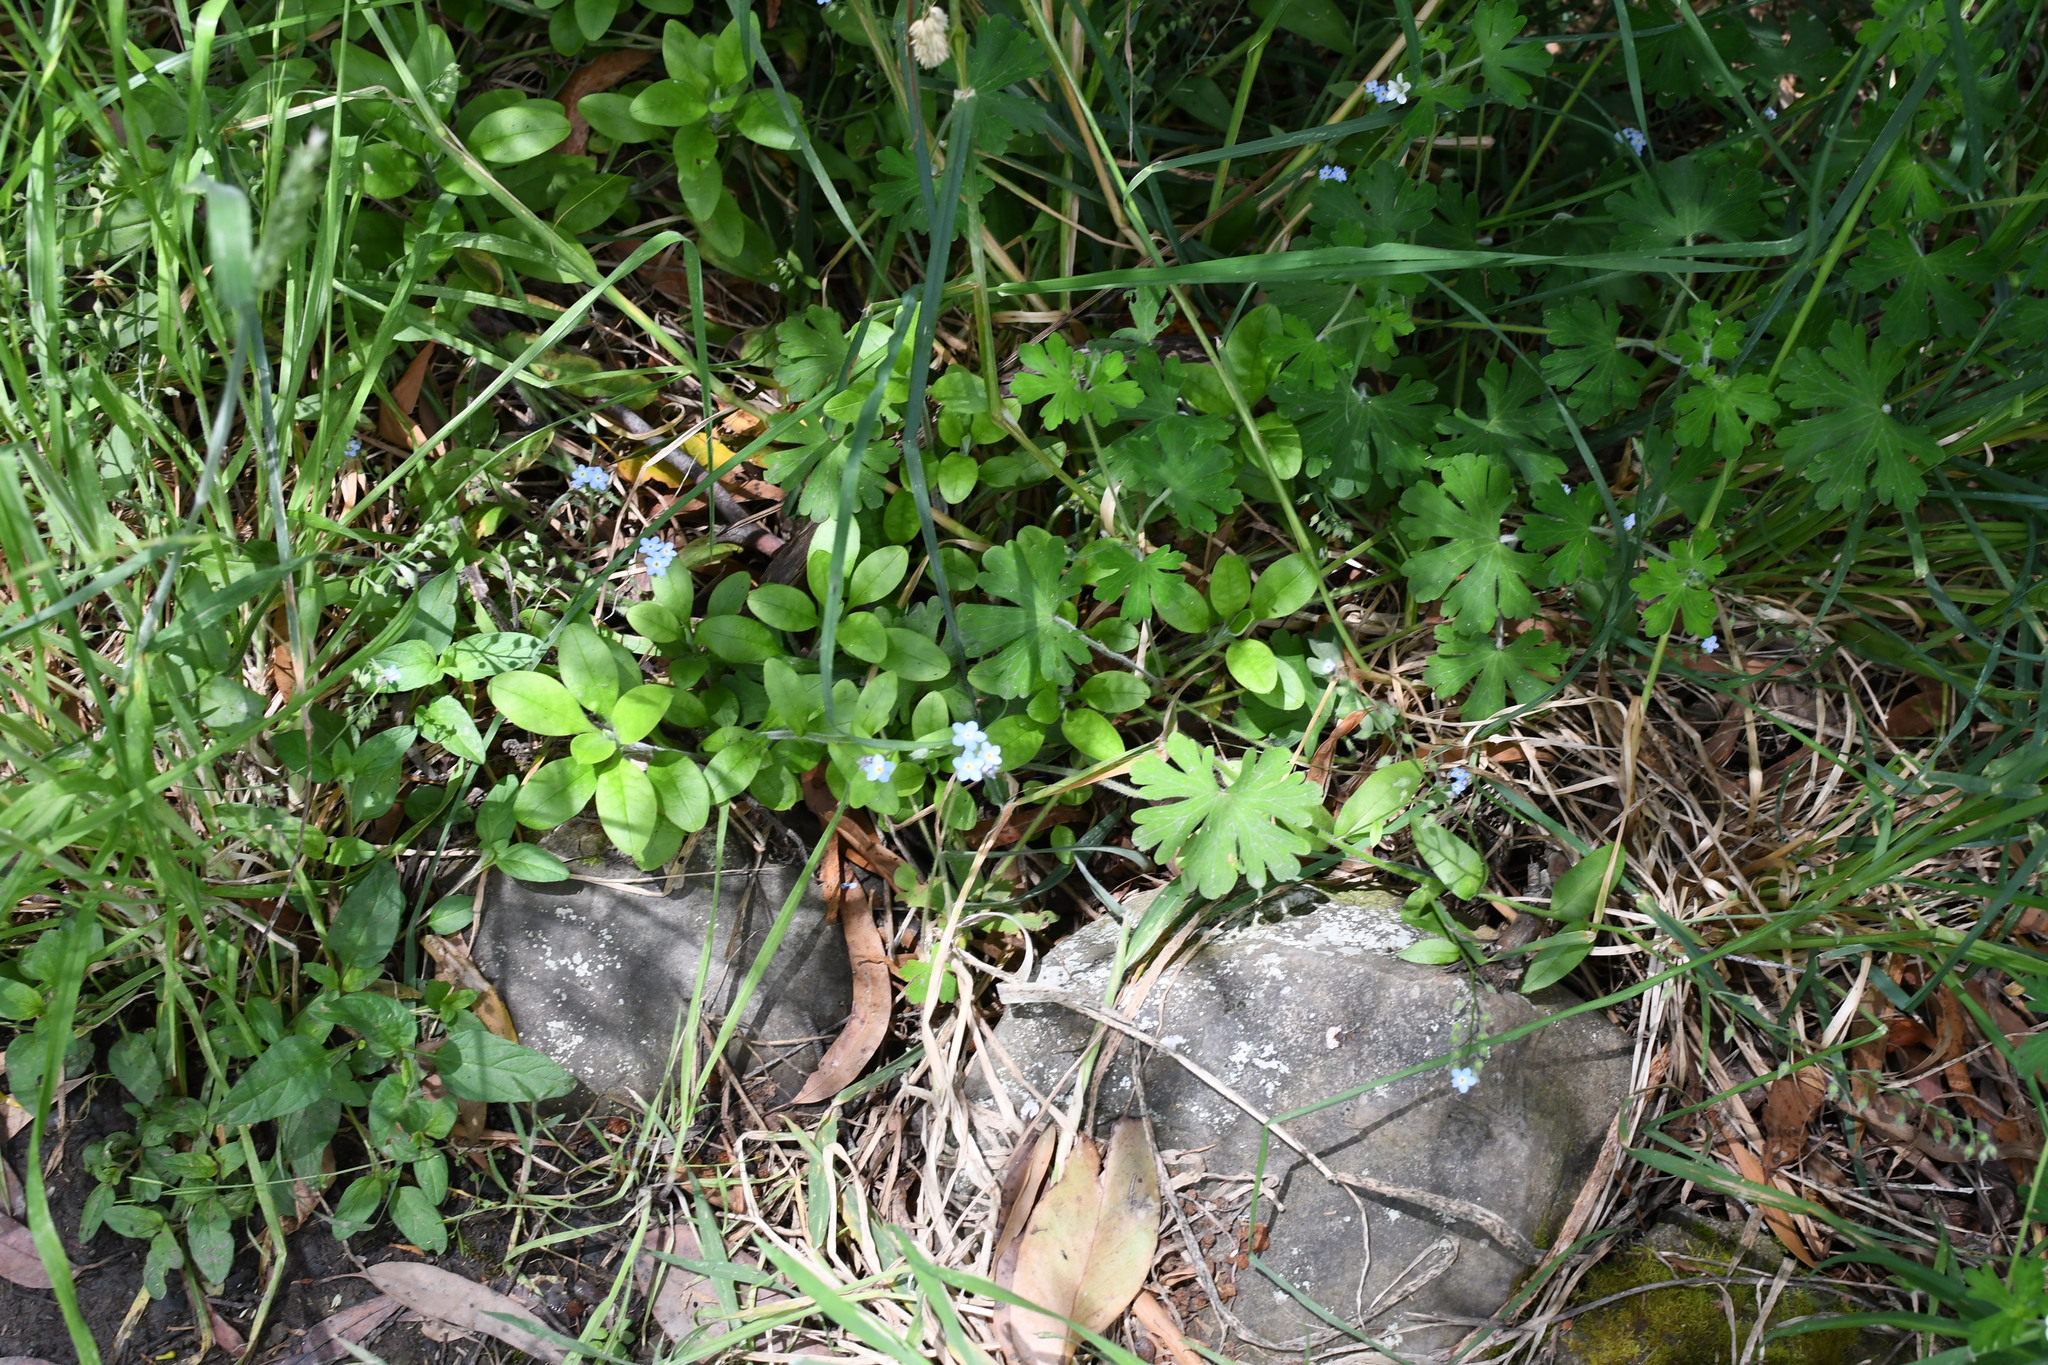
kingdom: Plantae
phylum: Tracheophyta
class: Magnoliopsida
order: Boraginales
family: Boraginaceae
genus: Myosotis
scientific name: Myosotis sylvatica
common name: Wood forget-me-not
